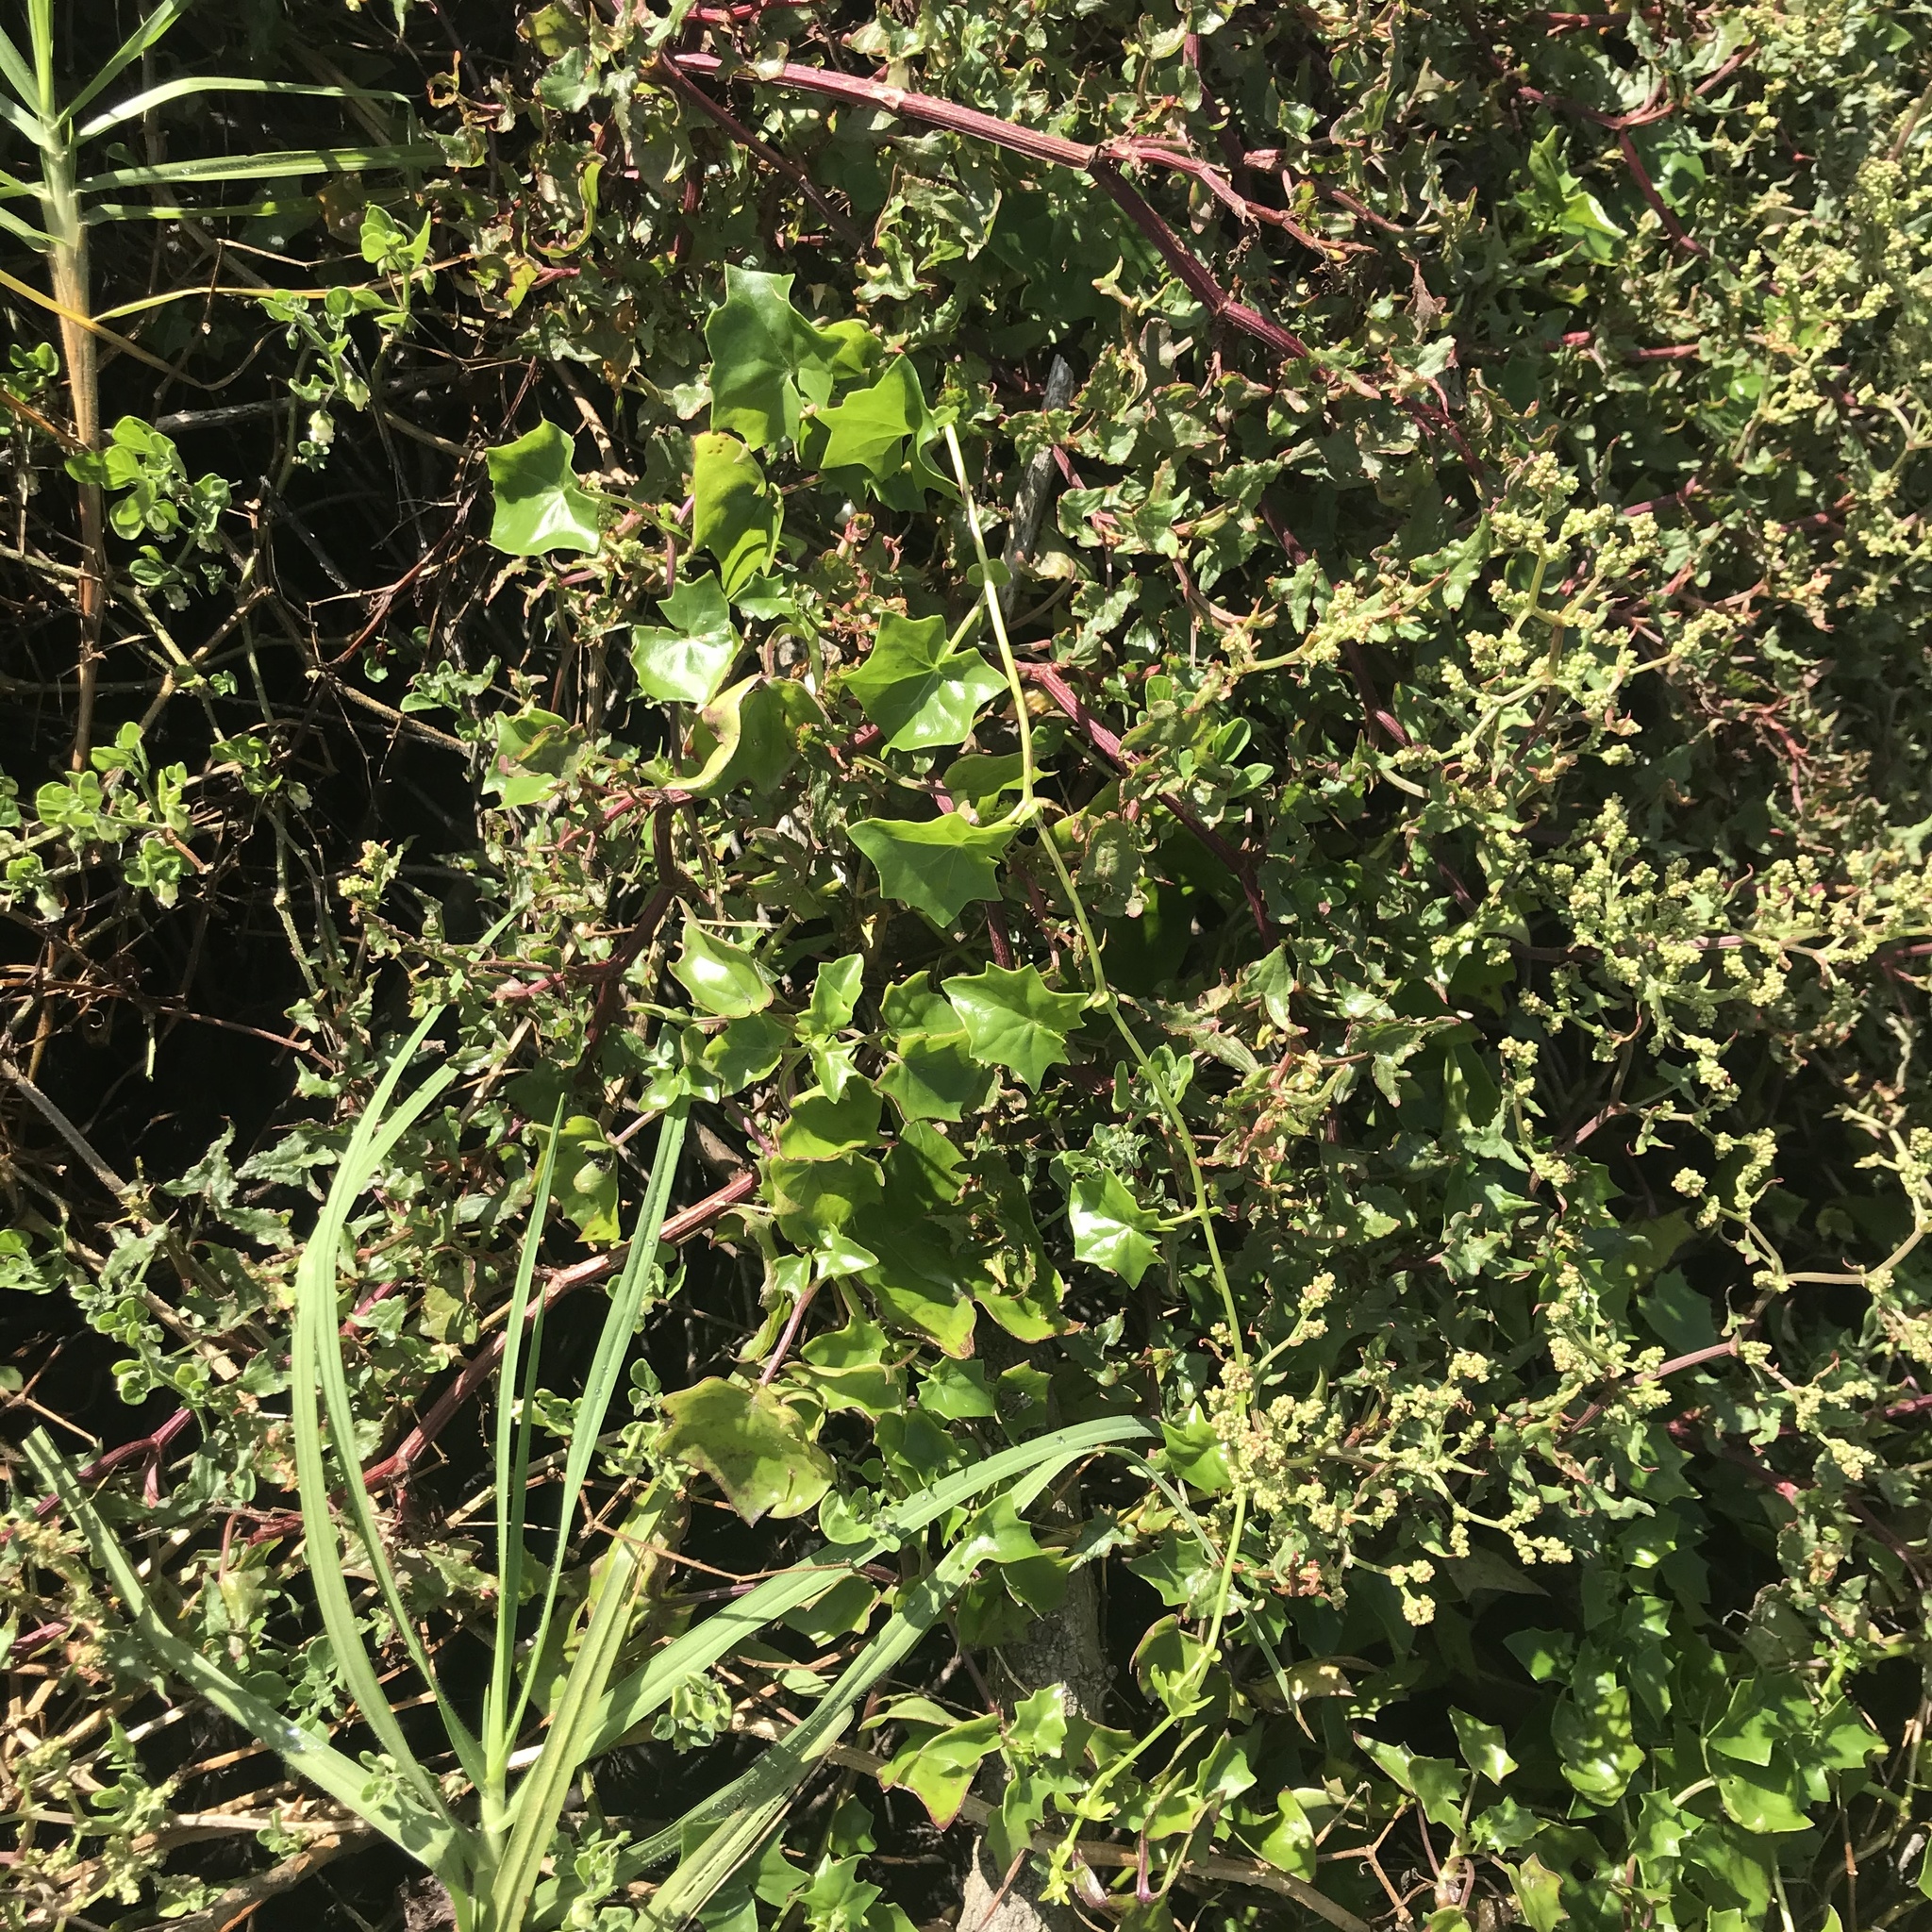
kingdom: Plantae
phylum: Tracheophyta
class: Magnoliopsida
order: Asterales
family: Asteraceae
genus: Delairea
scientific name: Delairea odorata
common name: Cape-ivy
